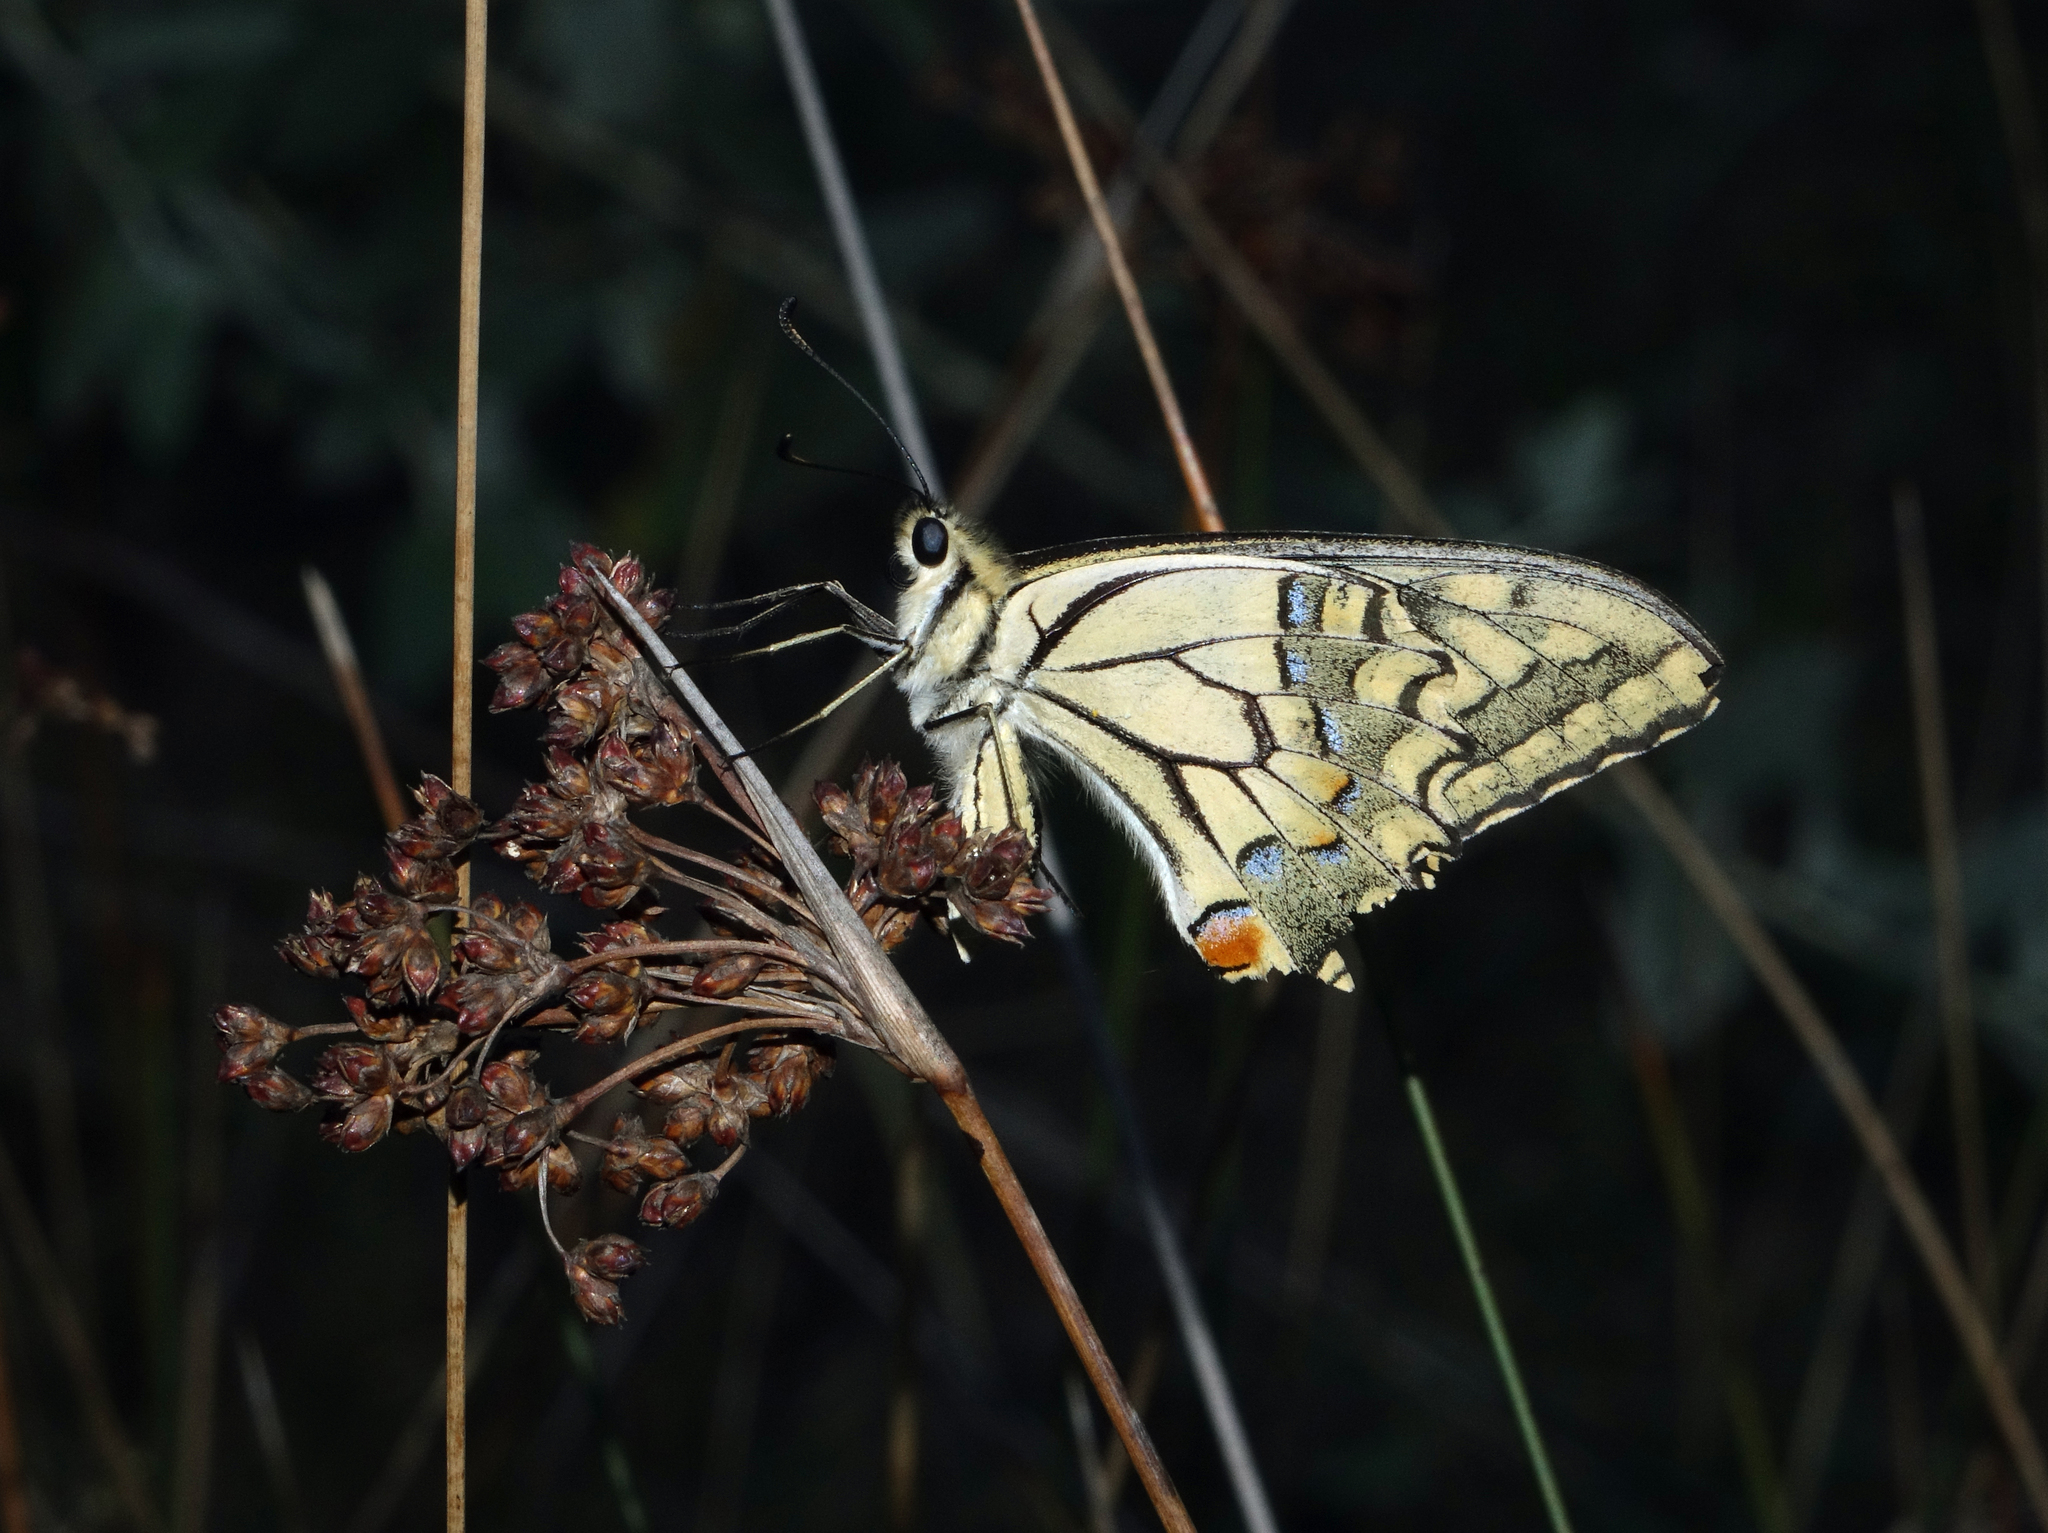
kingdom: Animalia
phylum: Arthropoda
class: Insecta
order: Lepidoptera
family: Papilionidae
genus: Papilio
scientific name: Papilio machaon
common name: Swallowtail
